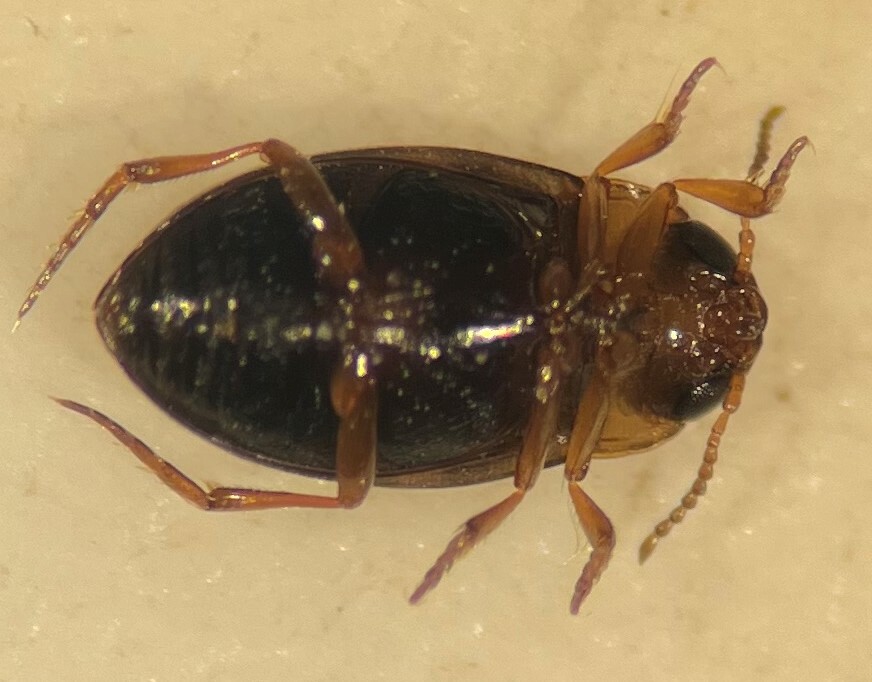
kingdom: Animalia
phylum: Arthropoda
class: Insecta
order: Coleoptera
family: Dytiscidae
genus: Uvarus
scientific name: Uvarus texanus
